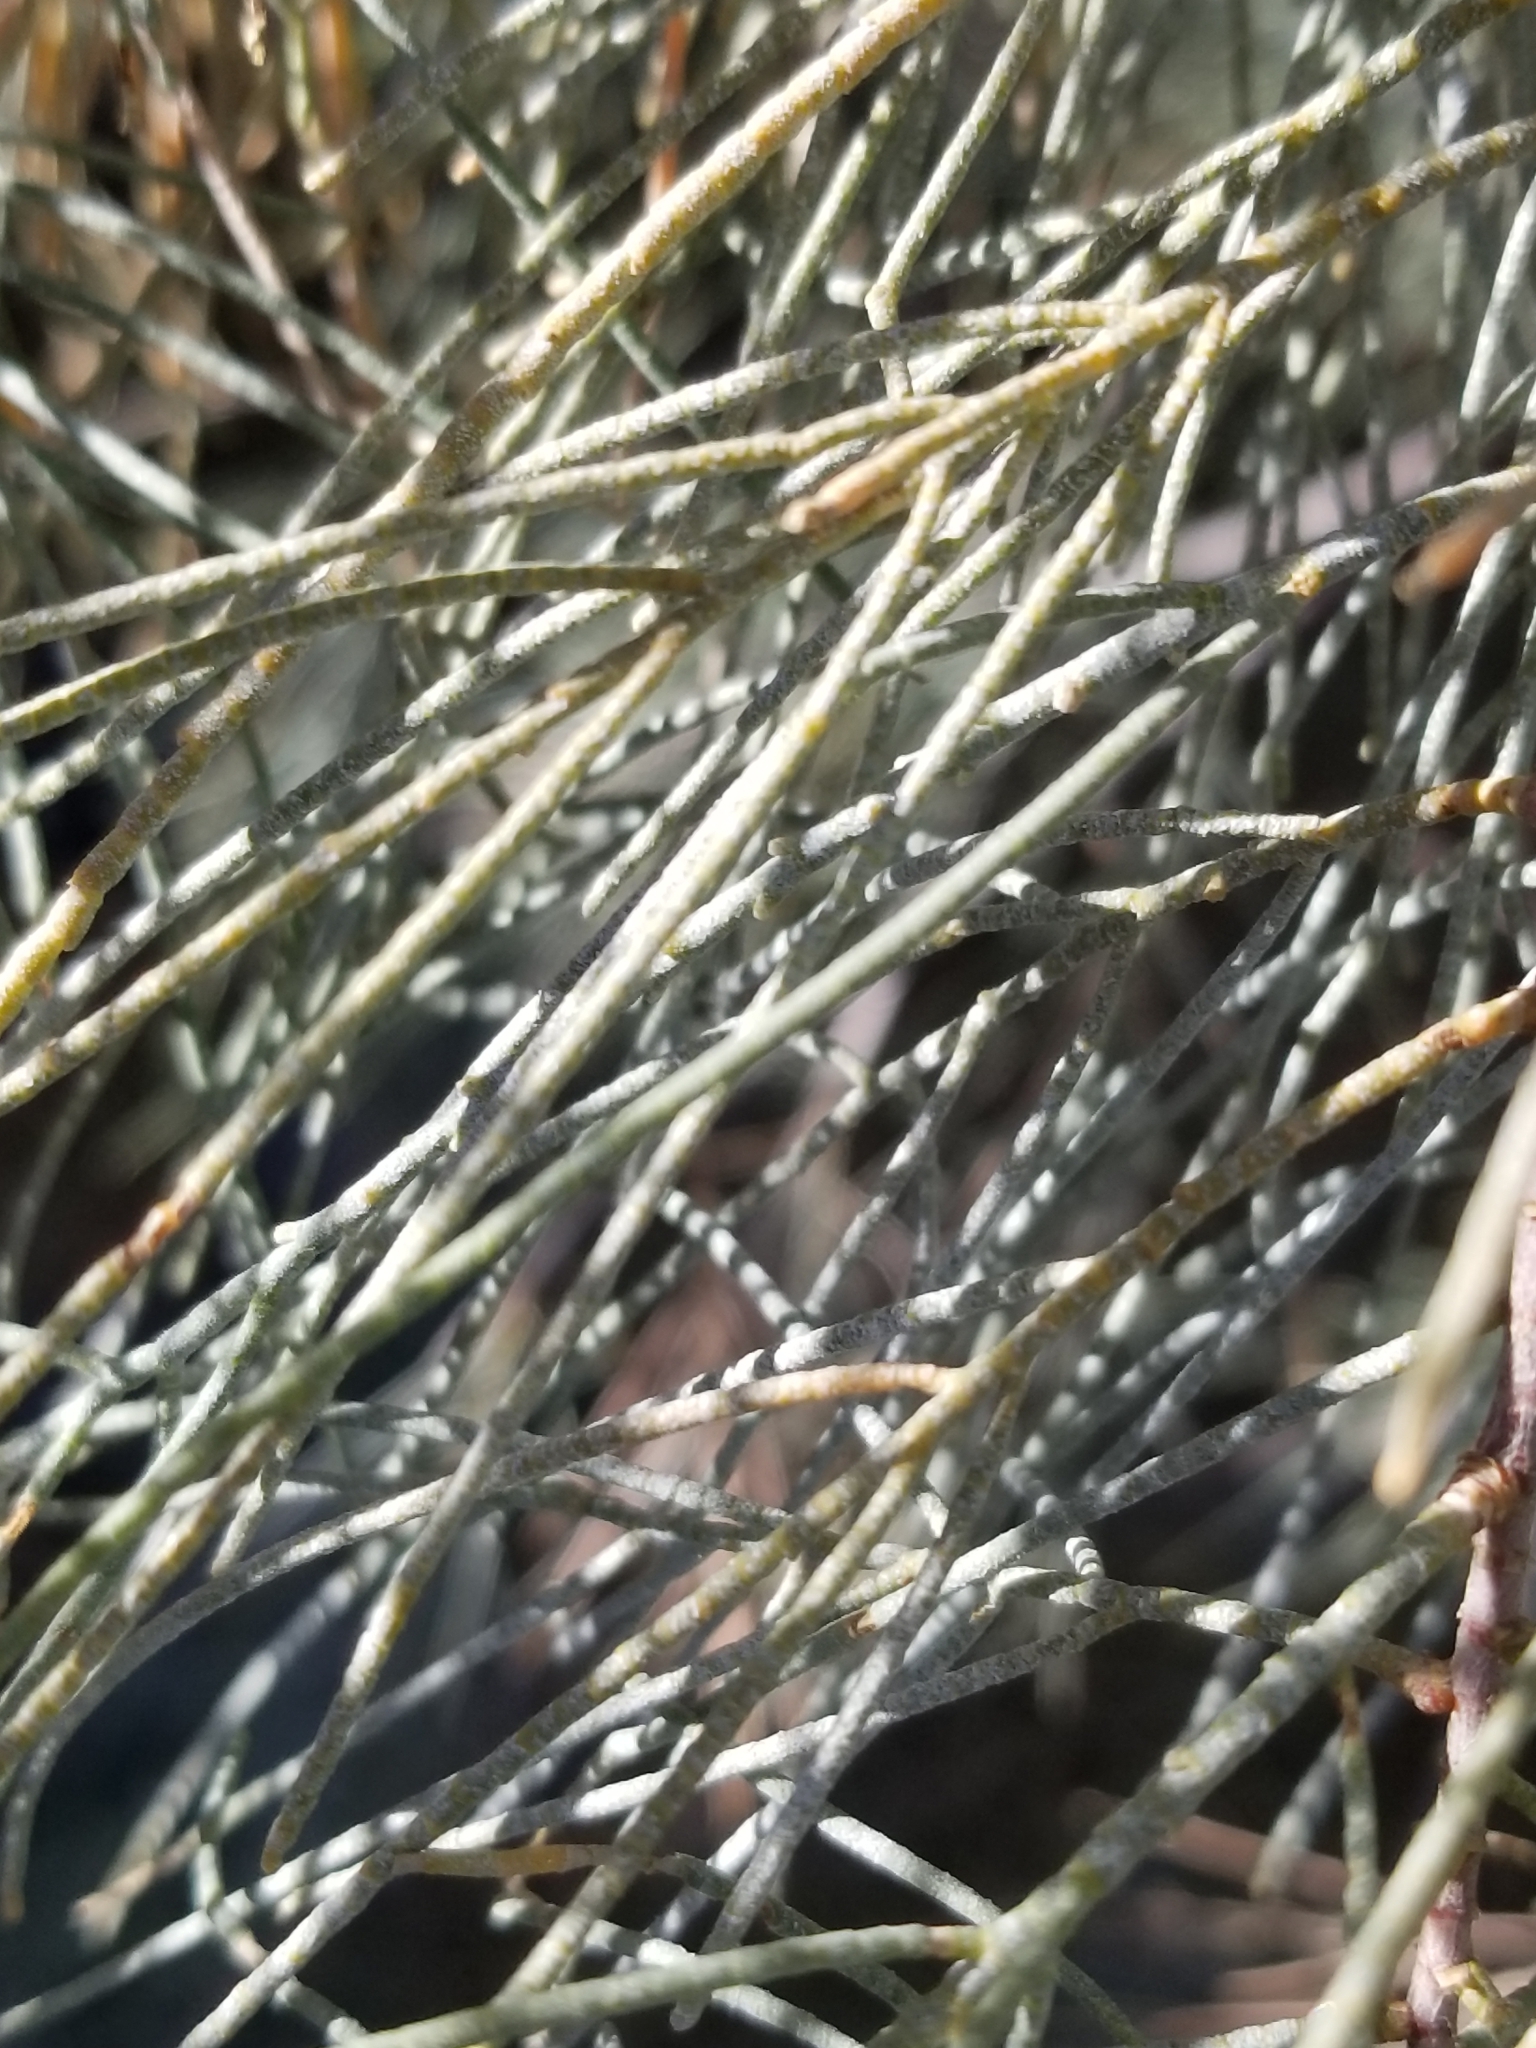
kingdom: Plantae
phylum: Tracheophyta
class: Magnoliopsida
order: Caryophyllales
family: Tamaricaceae
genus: Tamarix
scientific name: Tamarix aphylla
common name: Athel tamarisk
